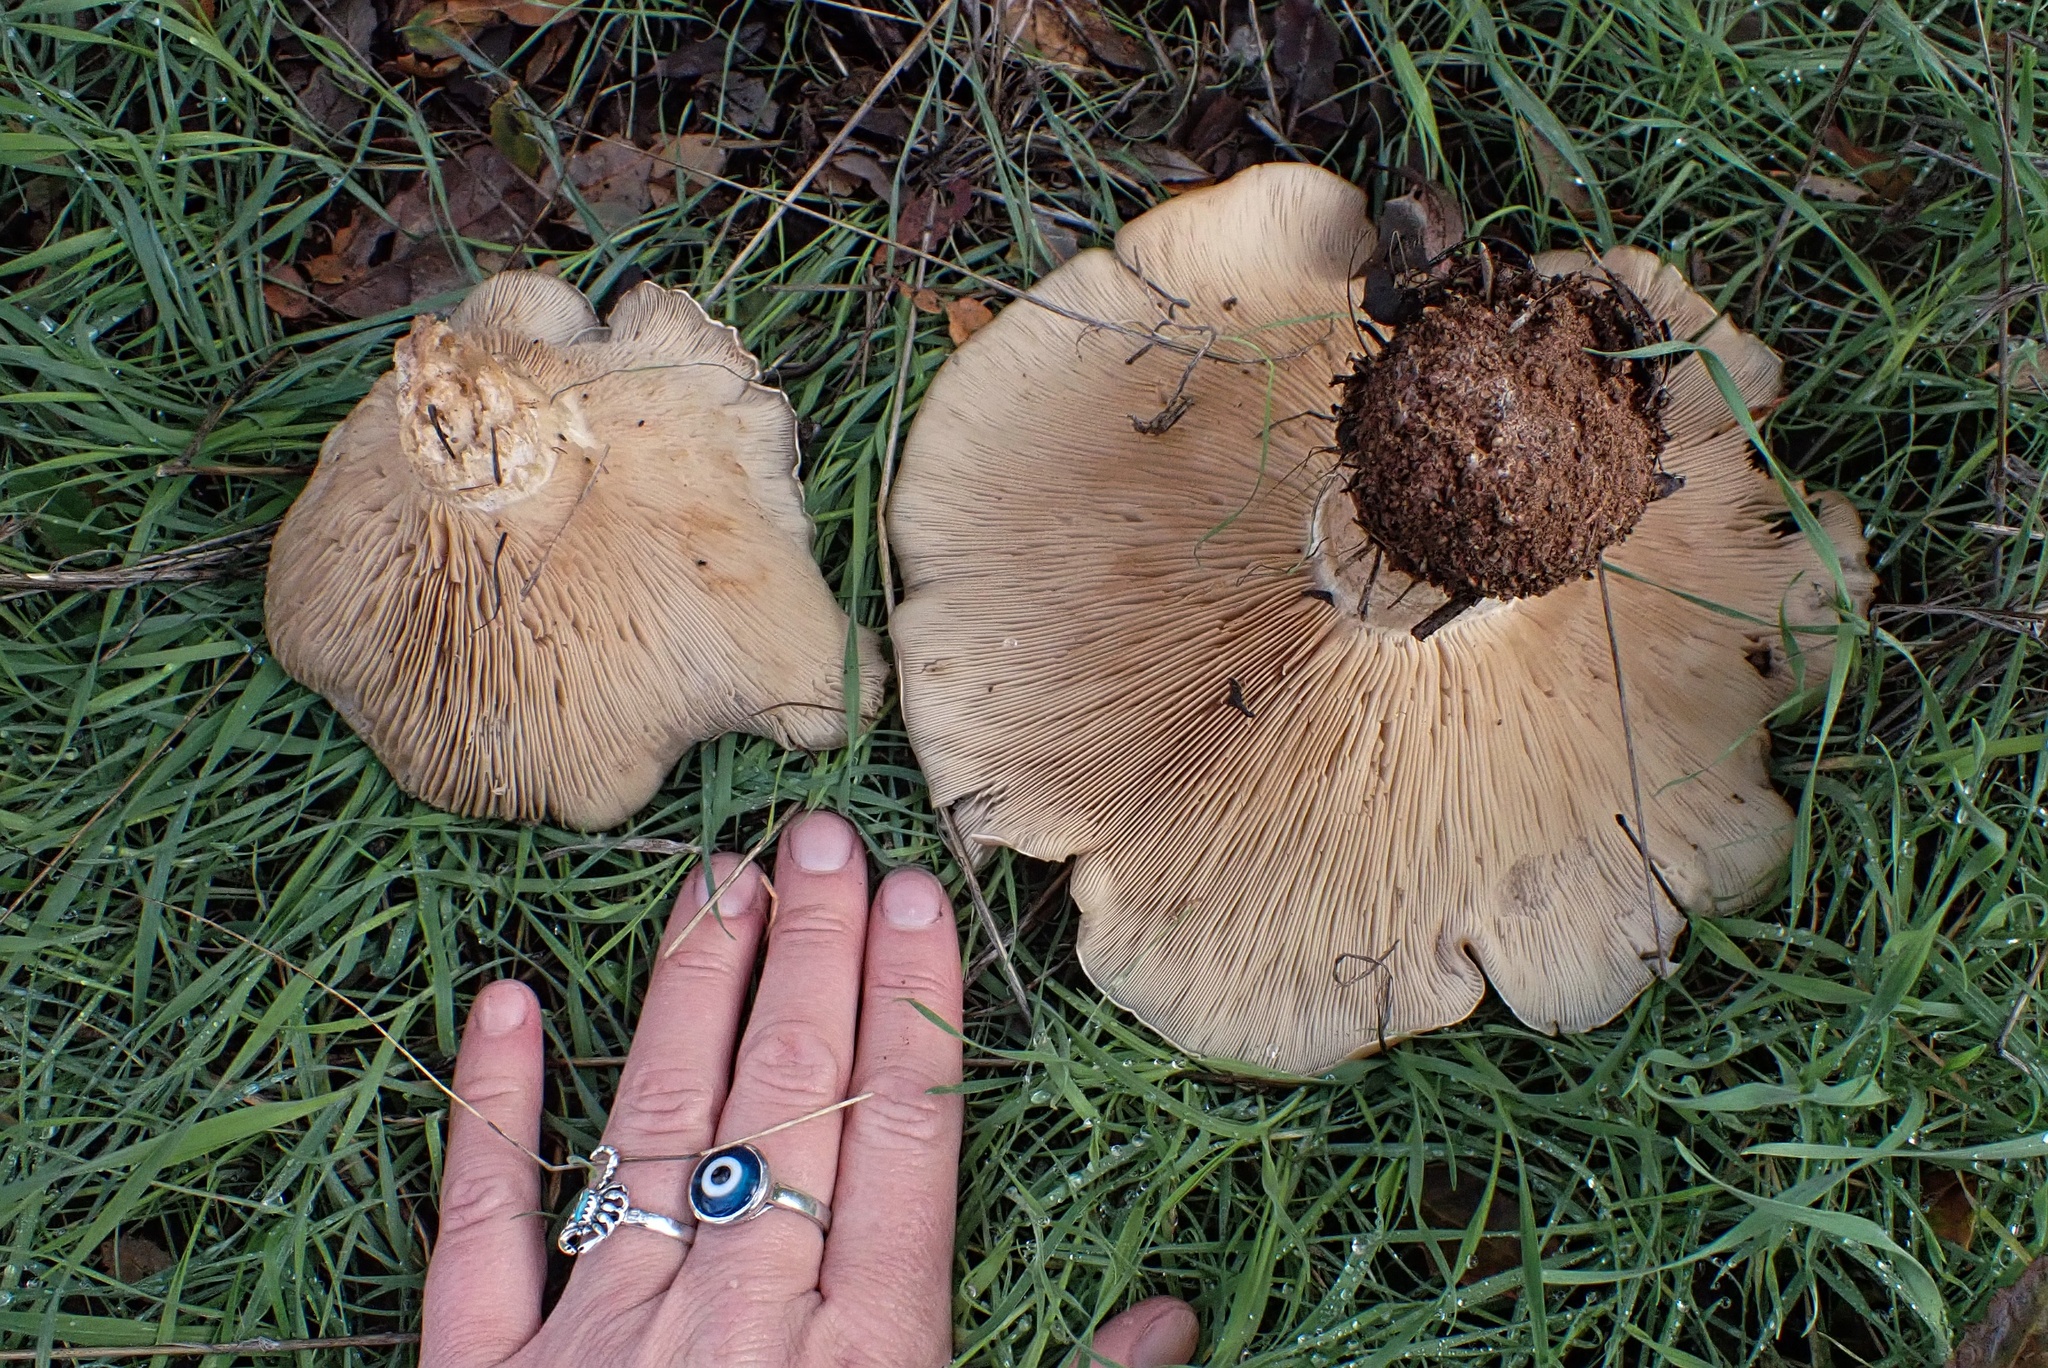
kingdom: Fungi
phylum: Basidiomycota
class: Agaricomycetes
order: Agaricales
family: Tricholomataceae
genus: Collybia
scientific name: Collybia
